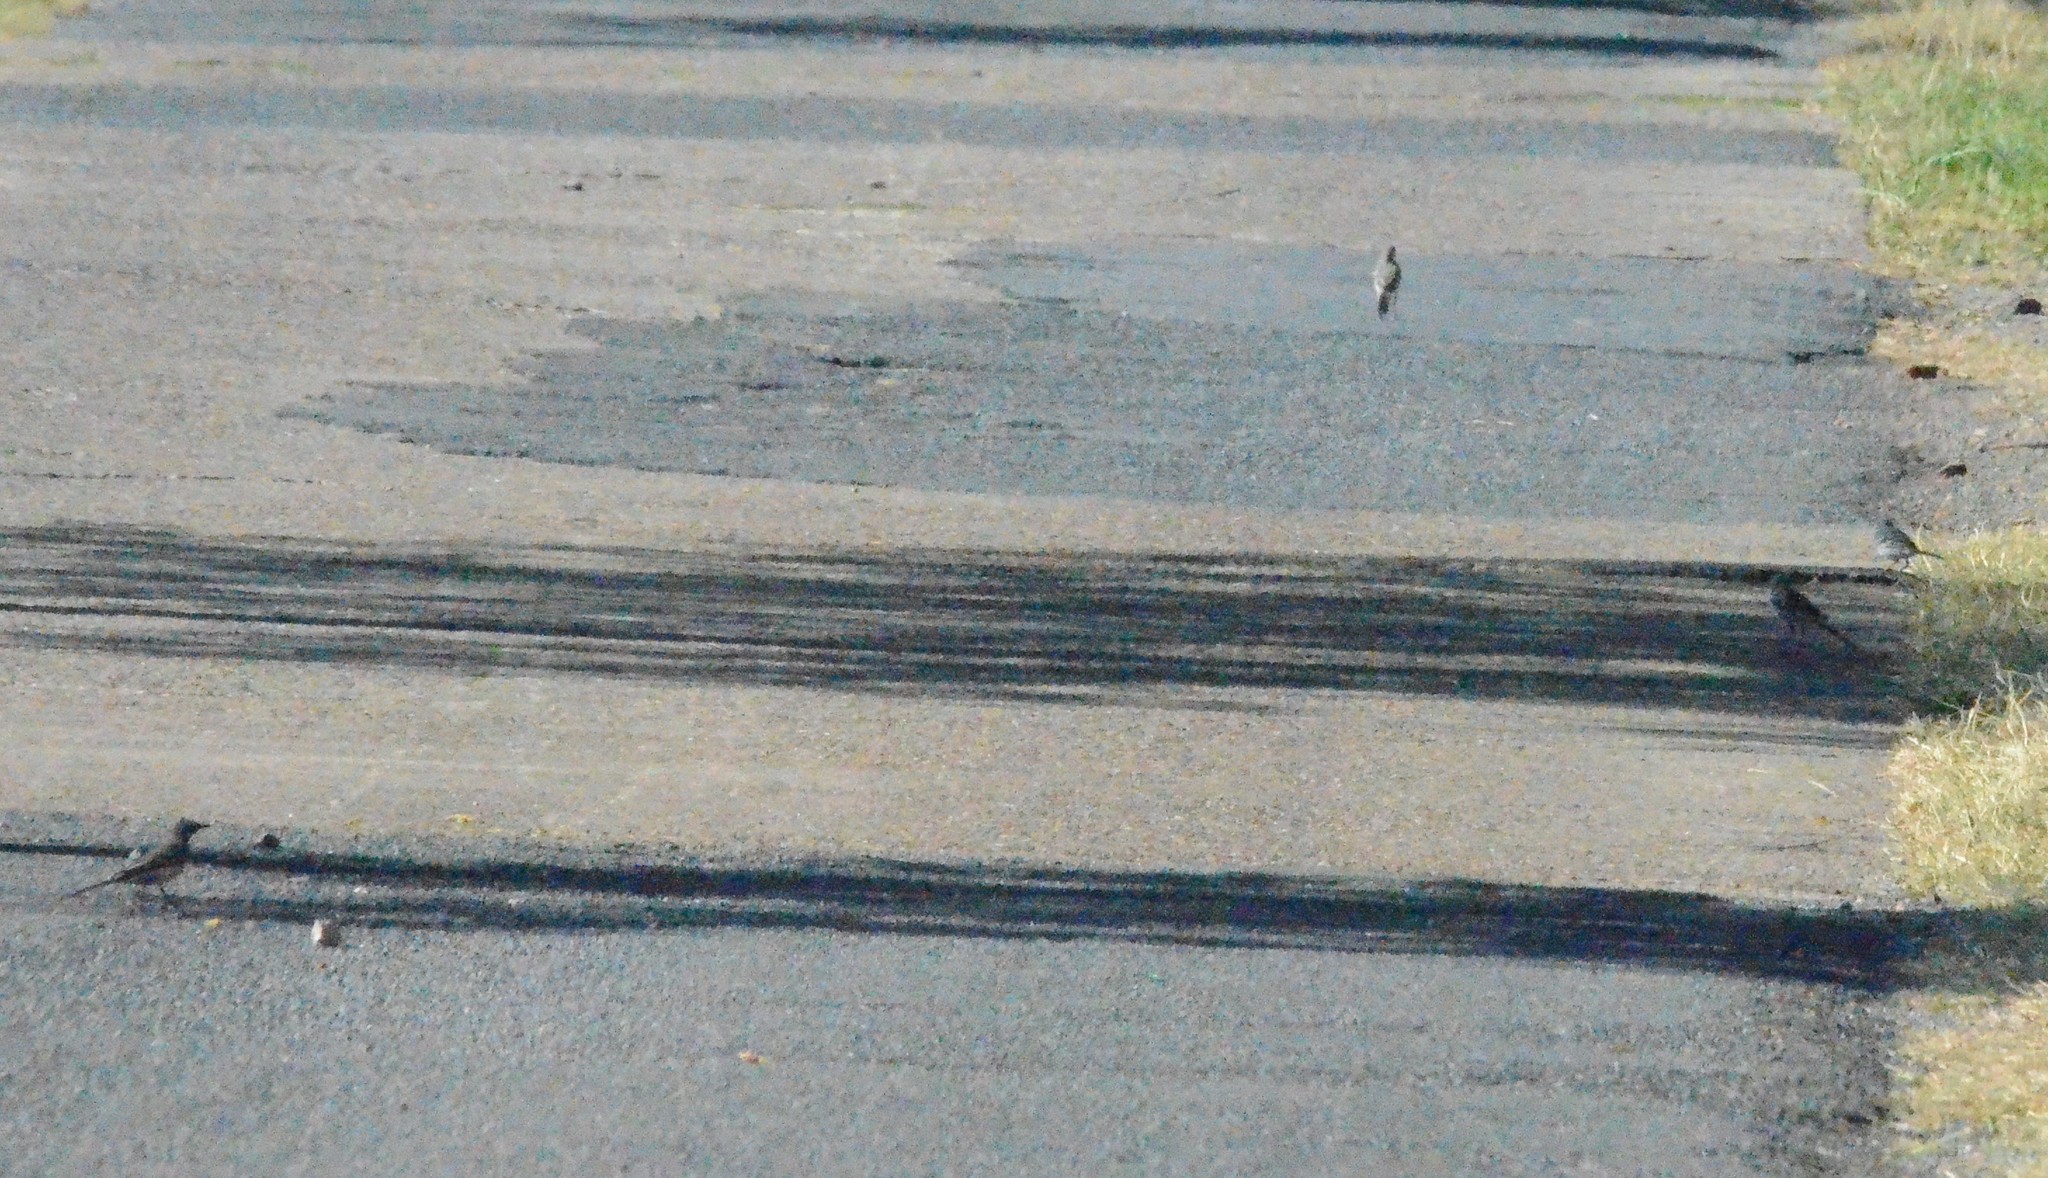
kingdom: Animalia
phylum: Chordata
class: Aves
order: Passeriformes
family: Motacillidae
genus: Motacilla
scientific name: Motacilla alba
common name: White wagtail
